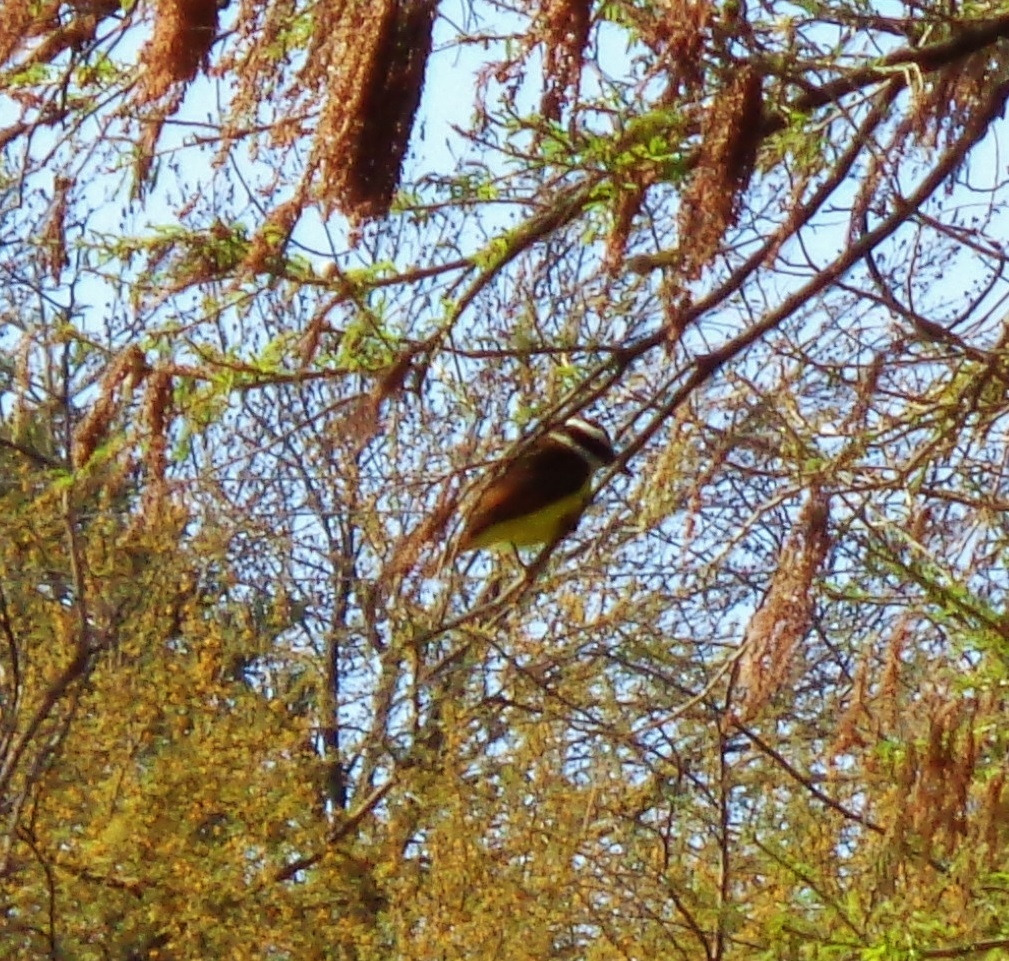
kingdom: Animalia
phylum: Chordata
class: Aves
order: Passeriformes
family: Tyrannidae
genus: Pitangus
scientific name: Pitangus sulphuratus
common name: Great kiskadee
